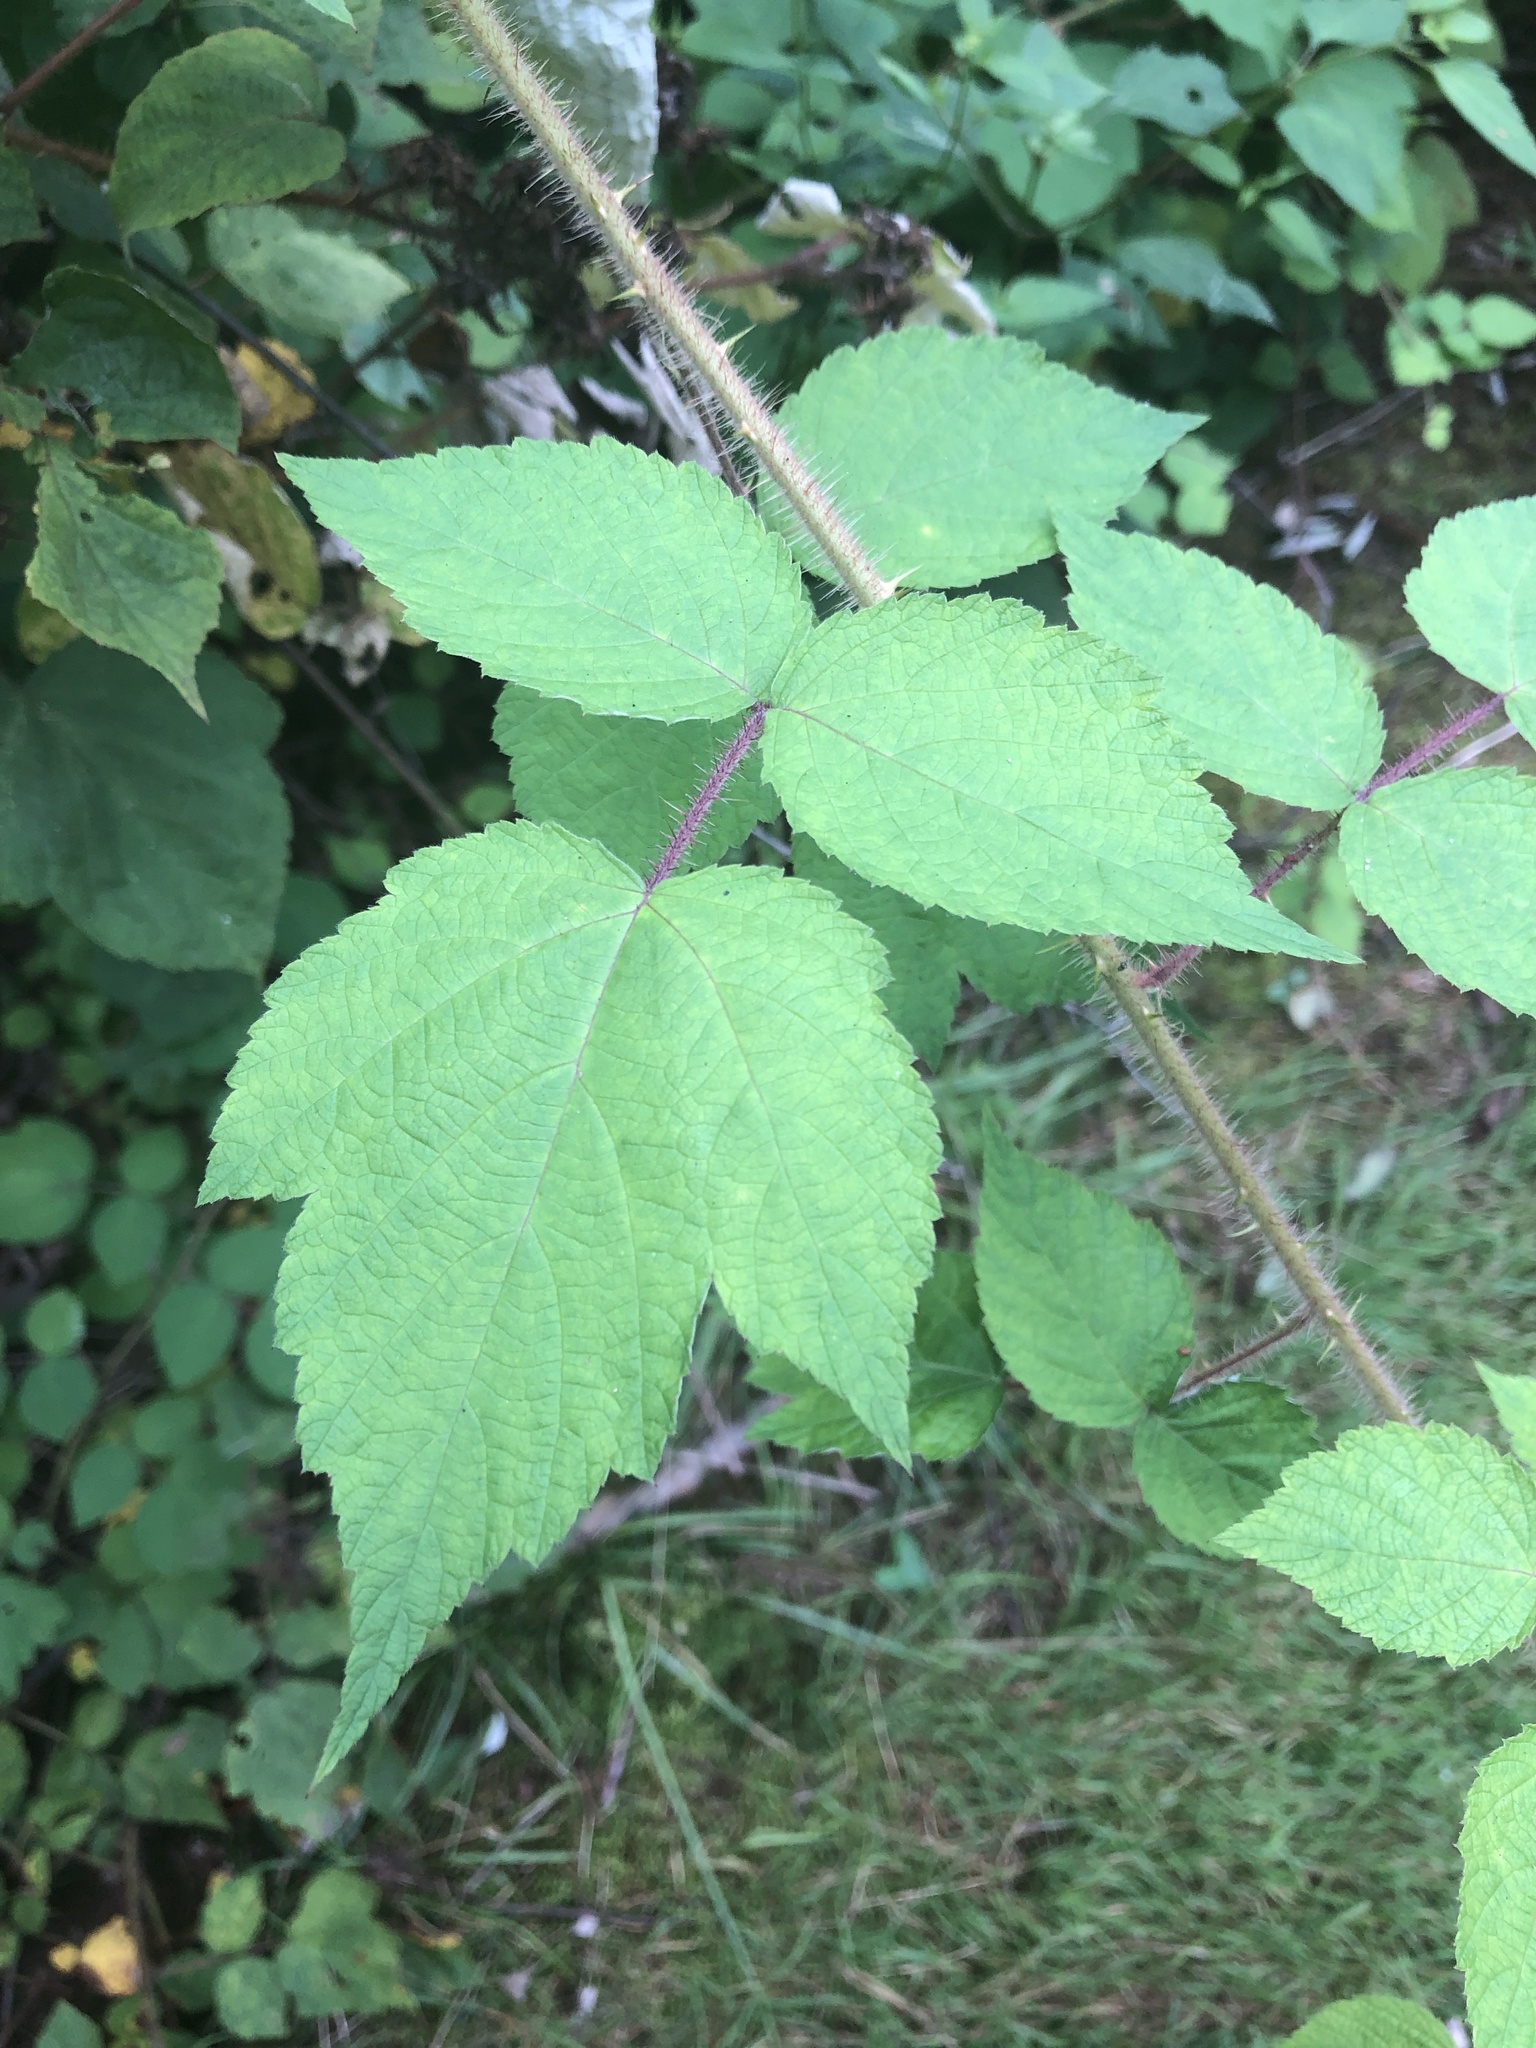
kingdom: Plantae
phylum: Tracheophyta
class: Magnoliopsida
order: Rosales
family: Rosaceae
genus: Rubus
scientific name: Rubus phoenicolasius
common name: Japanese wineberry
